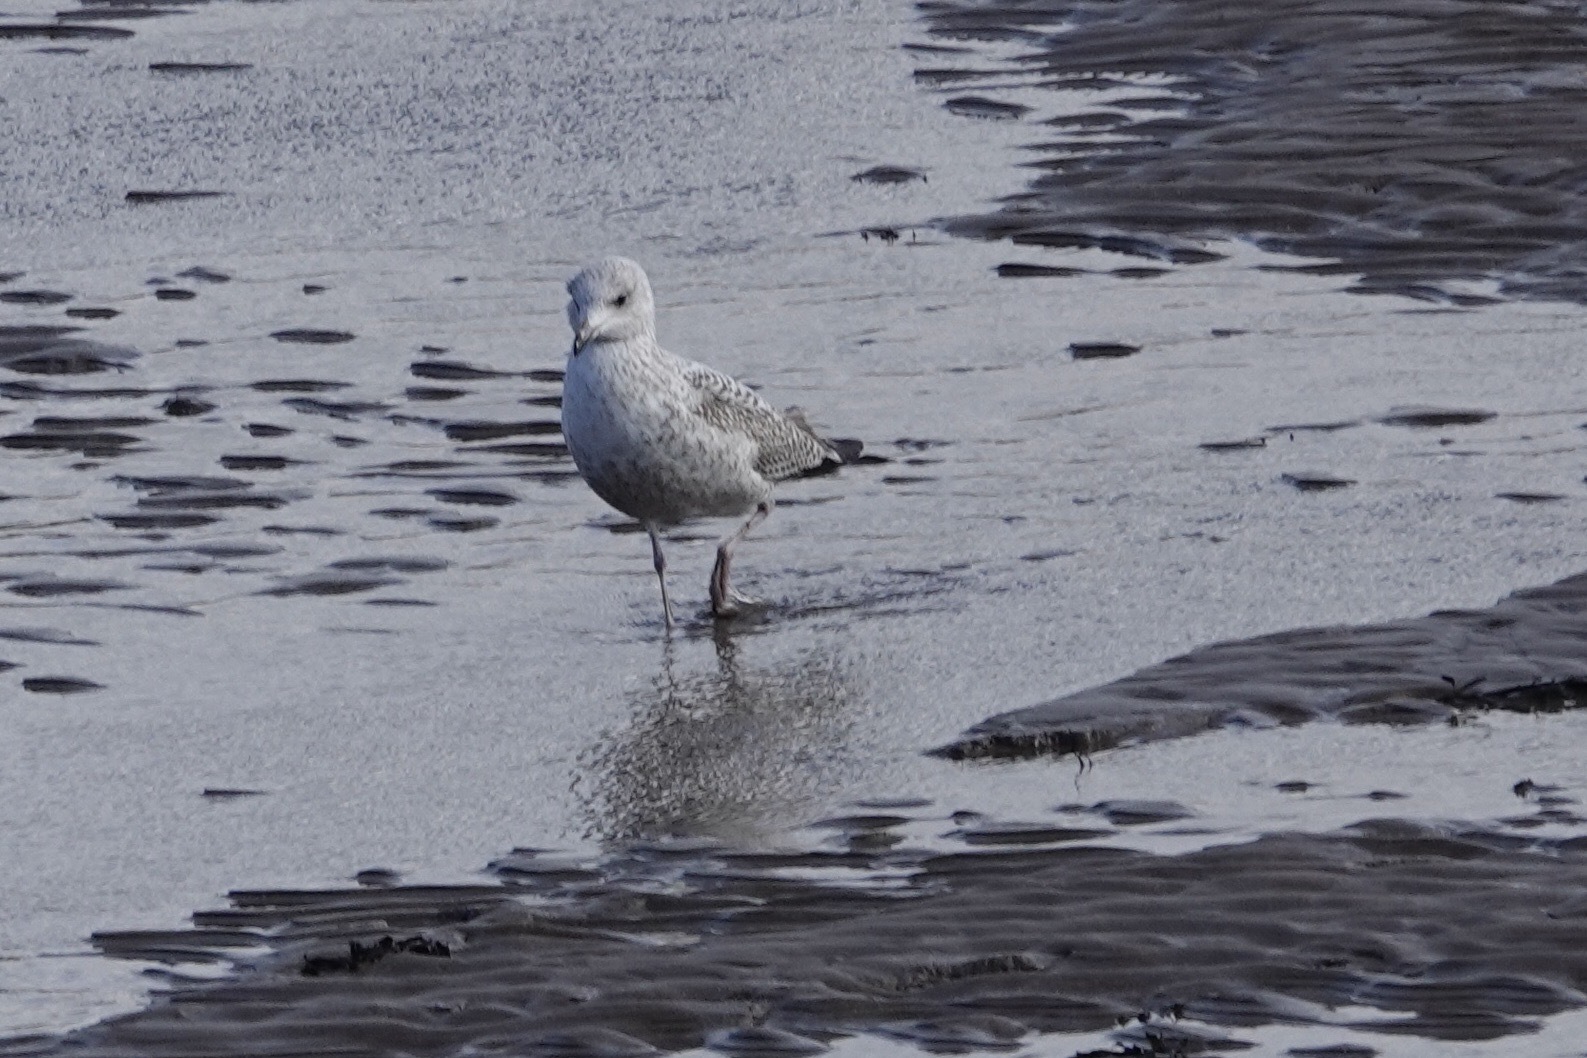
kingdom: Animalia
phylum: Chordata
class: Aves
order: Charadriiformes
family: Laridae
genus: Larus
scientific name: Larus argentatus
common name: Herring gull
